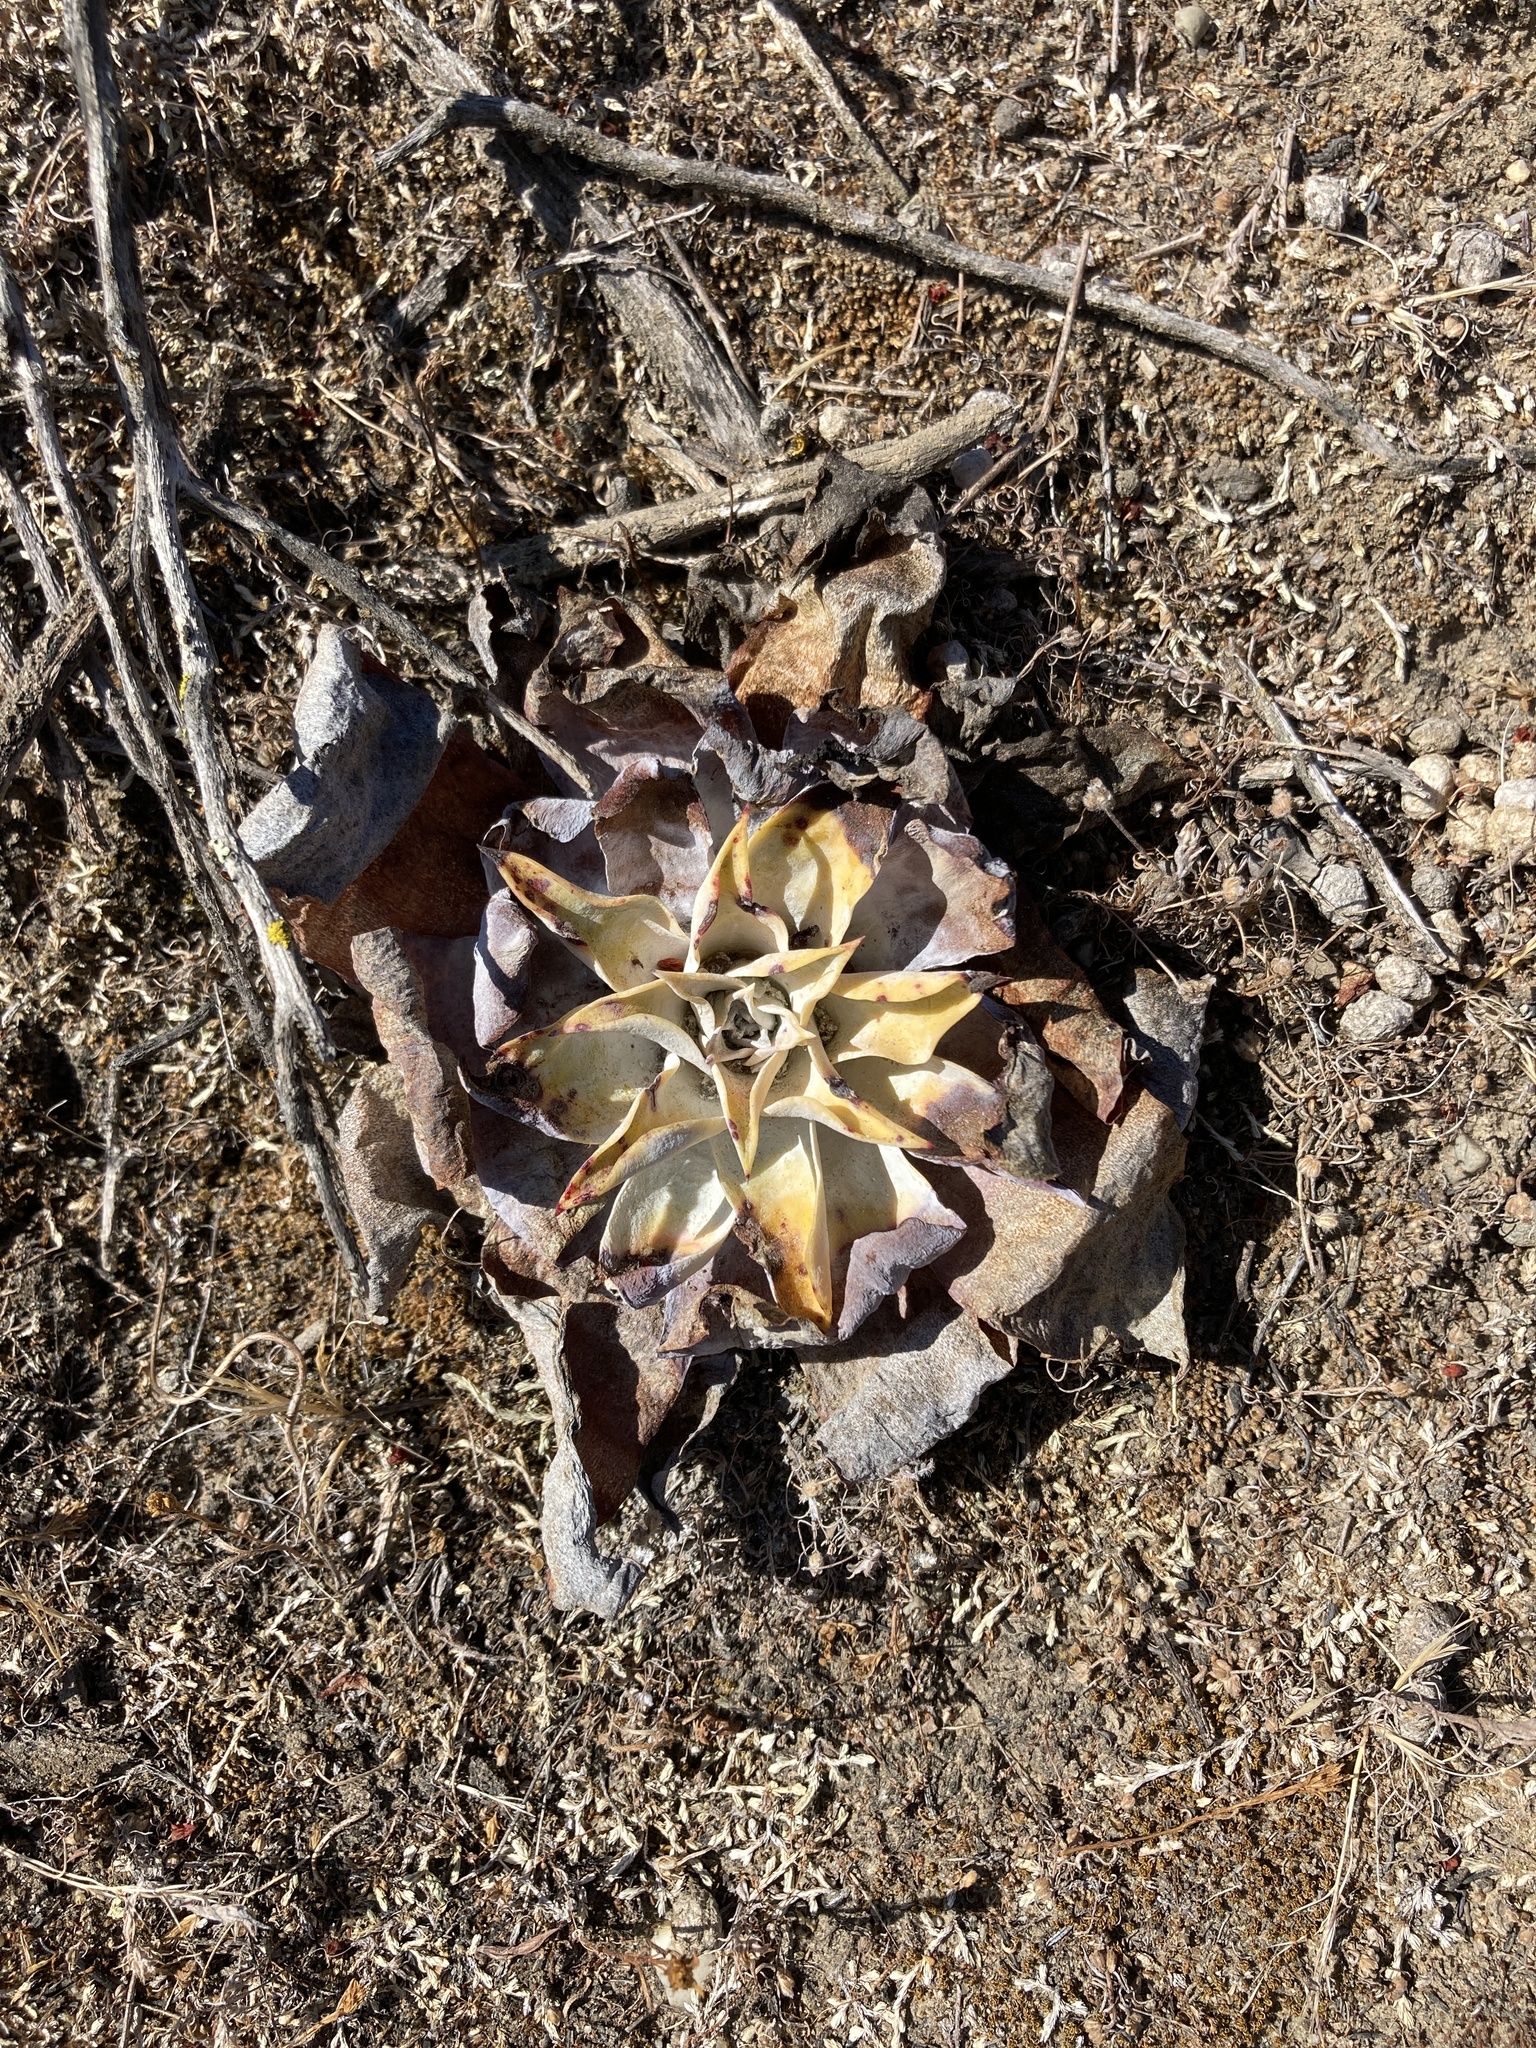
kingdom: Plantae
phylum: Tracheophyta
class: Magnoliopsida
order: Saxifragales
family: Crassulaceae
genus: Dudleya
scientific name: Dudleya pulverulenta
